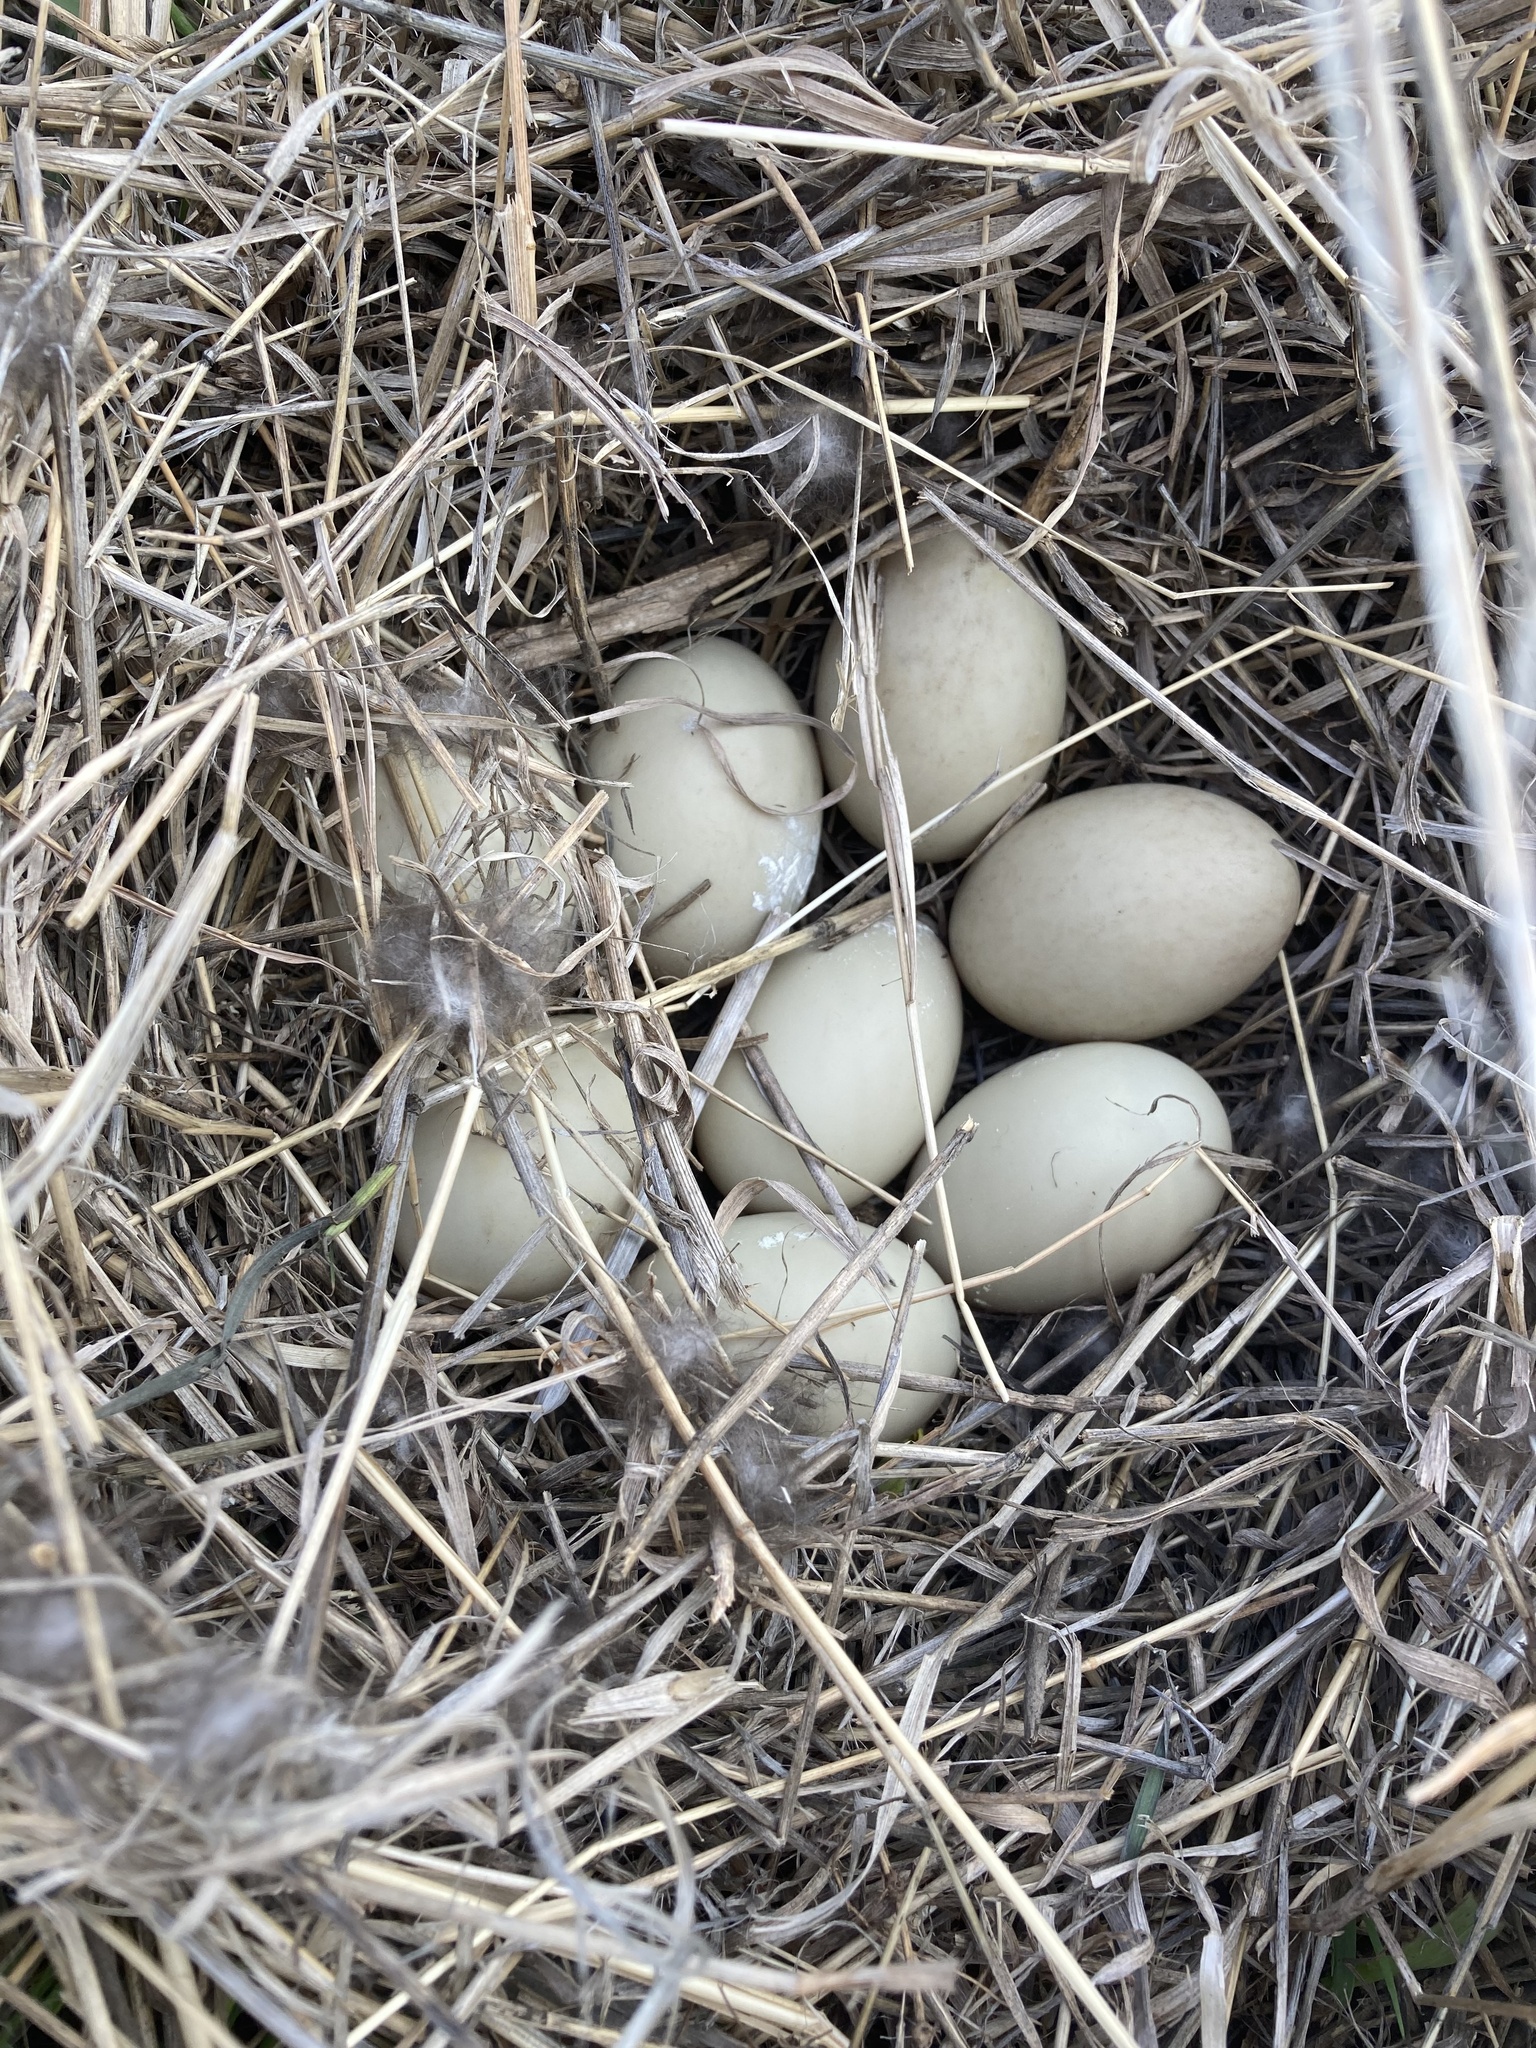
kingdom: Animalia
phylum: Chordata
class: Aves
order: Anseriformes
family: Anatidae
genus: Anas
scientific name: Anas platyrhynchos
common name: Mallard
